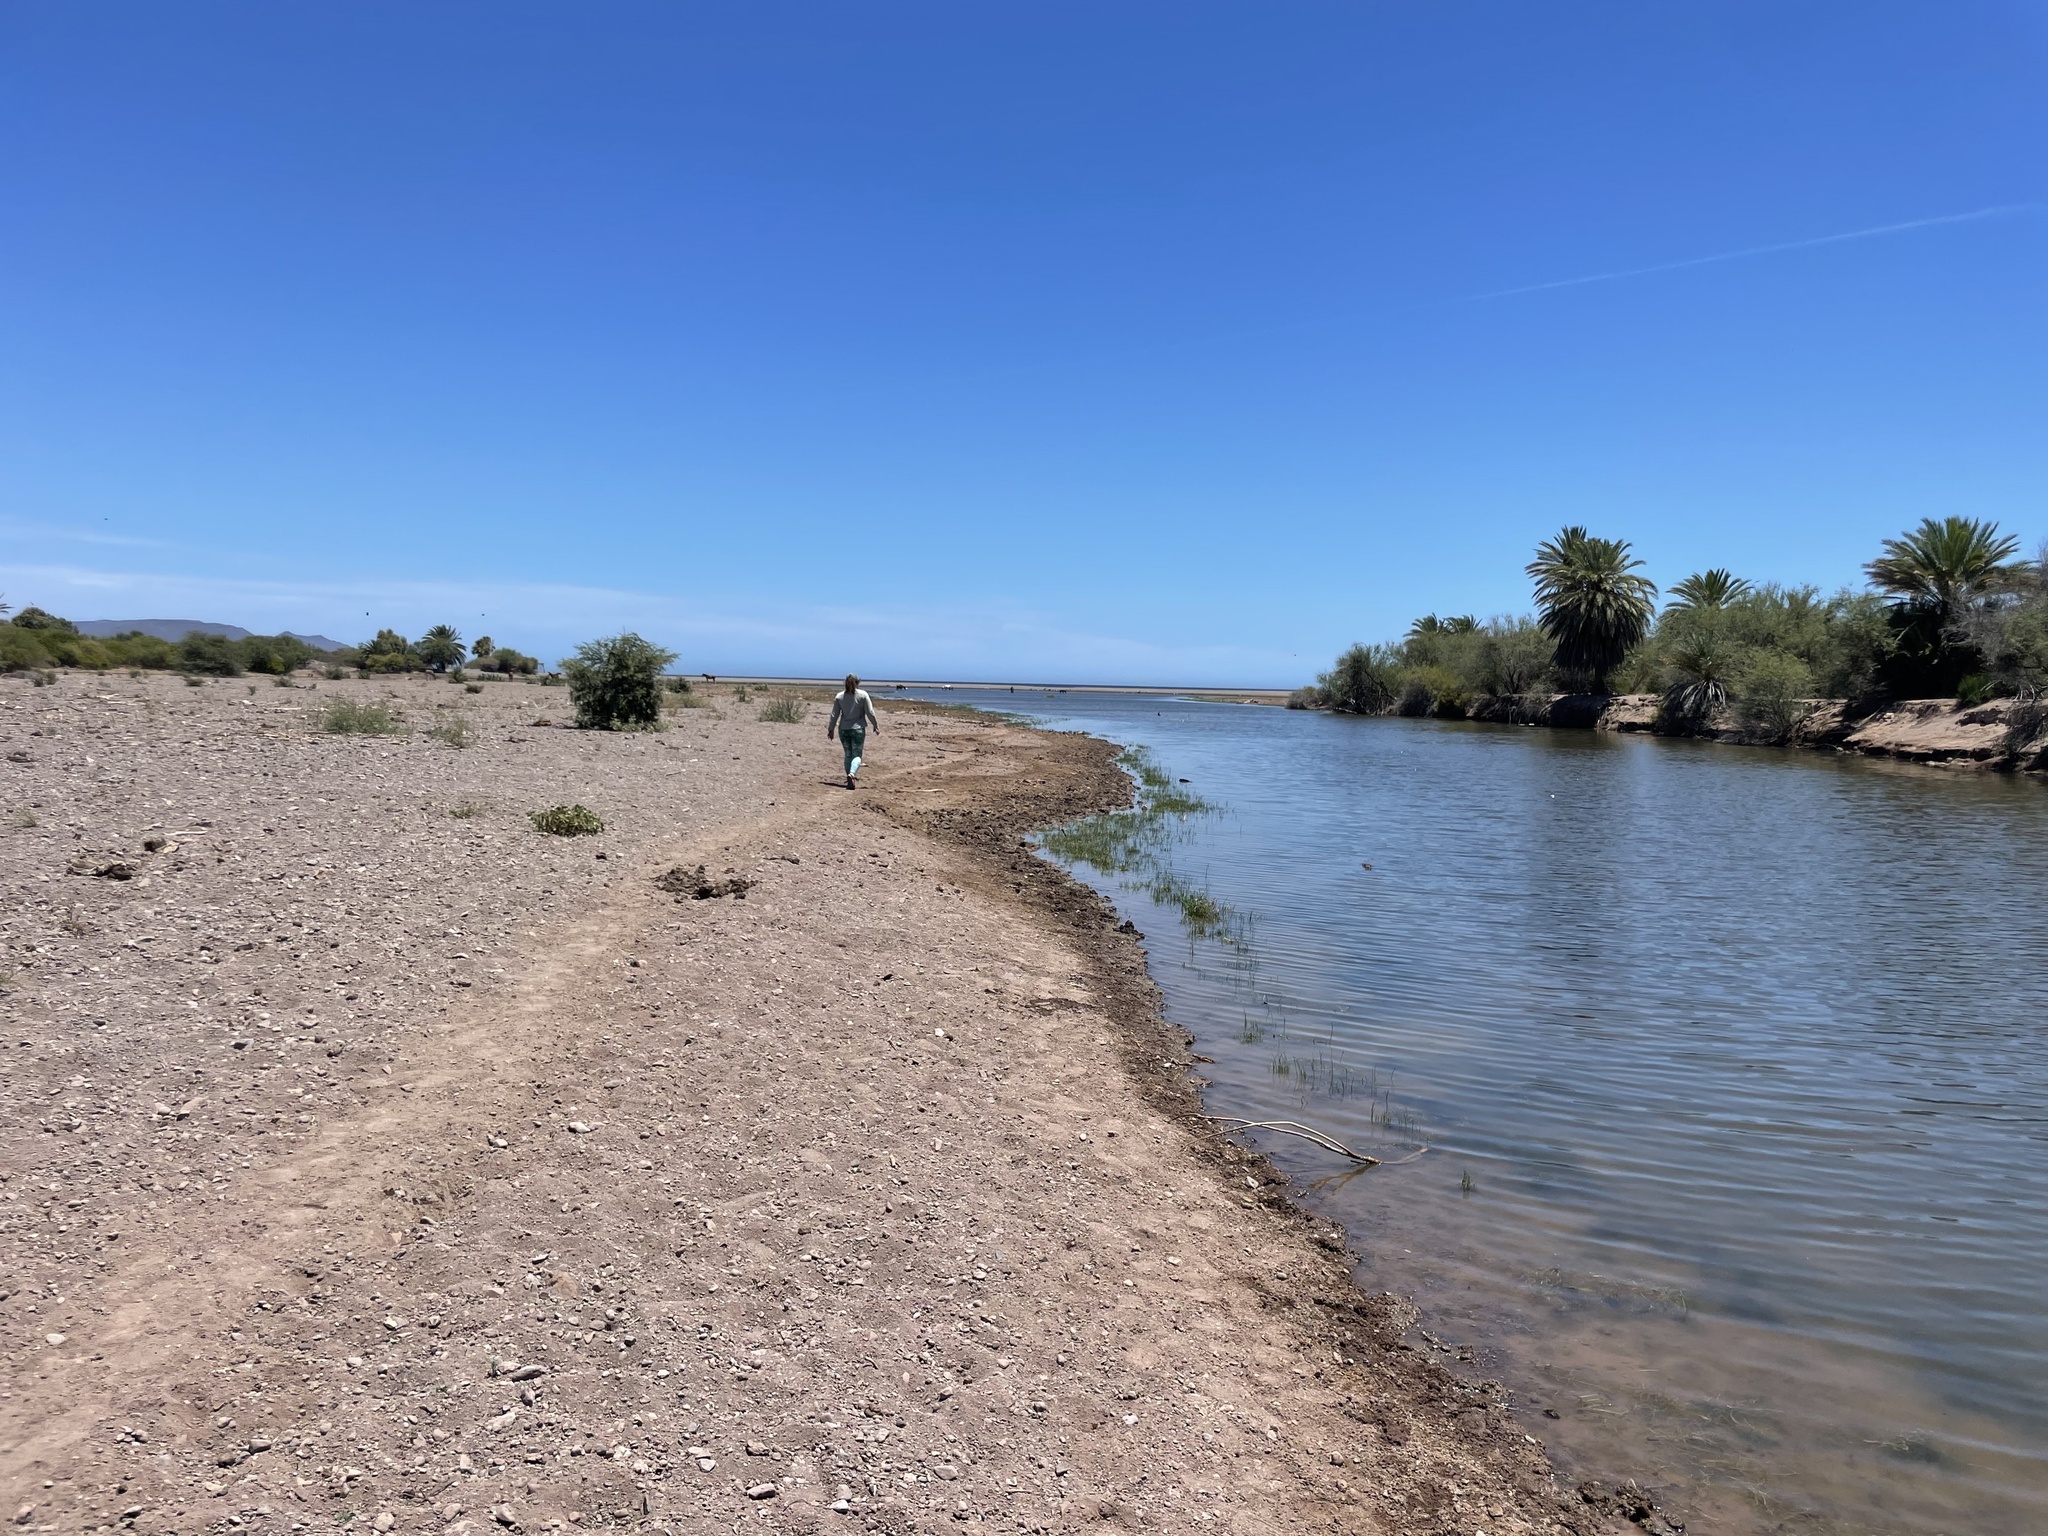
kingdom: Plantae
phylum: Tracheophyta
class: Liliopsida
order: Alismatales
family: Ruppiaceae
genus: Ruppia
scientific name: Ruppia maritima
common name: Beaked tasselweed
